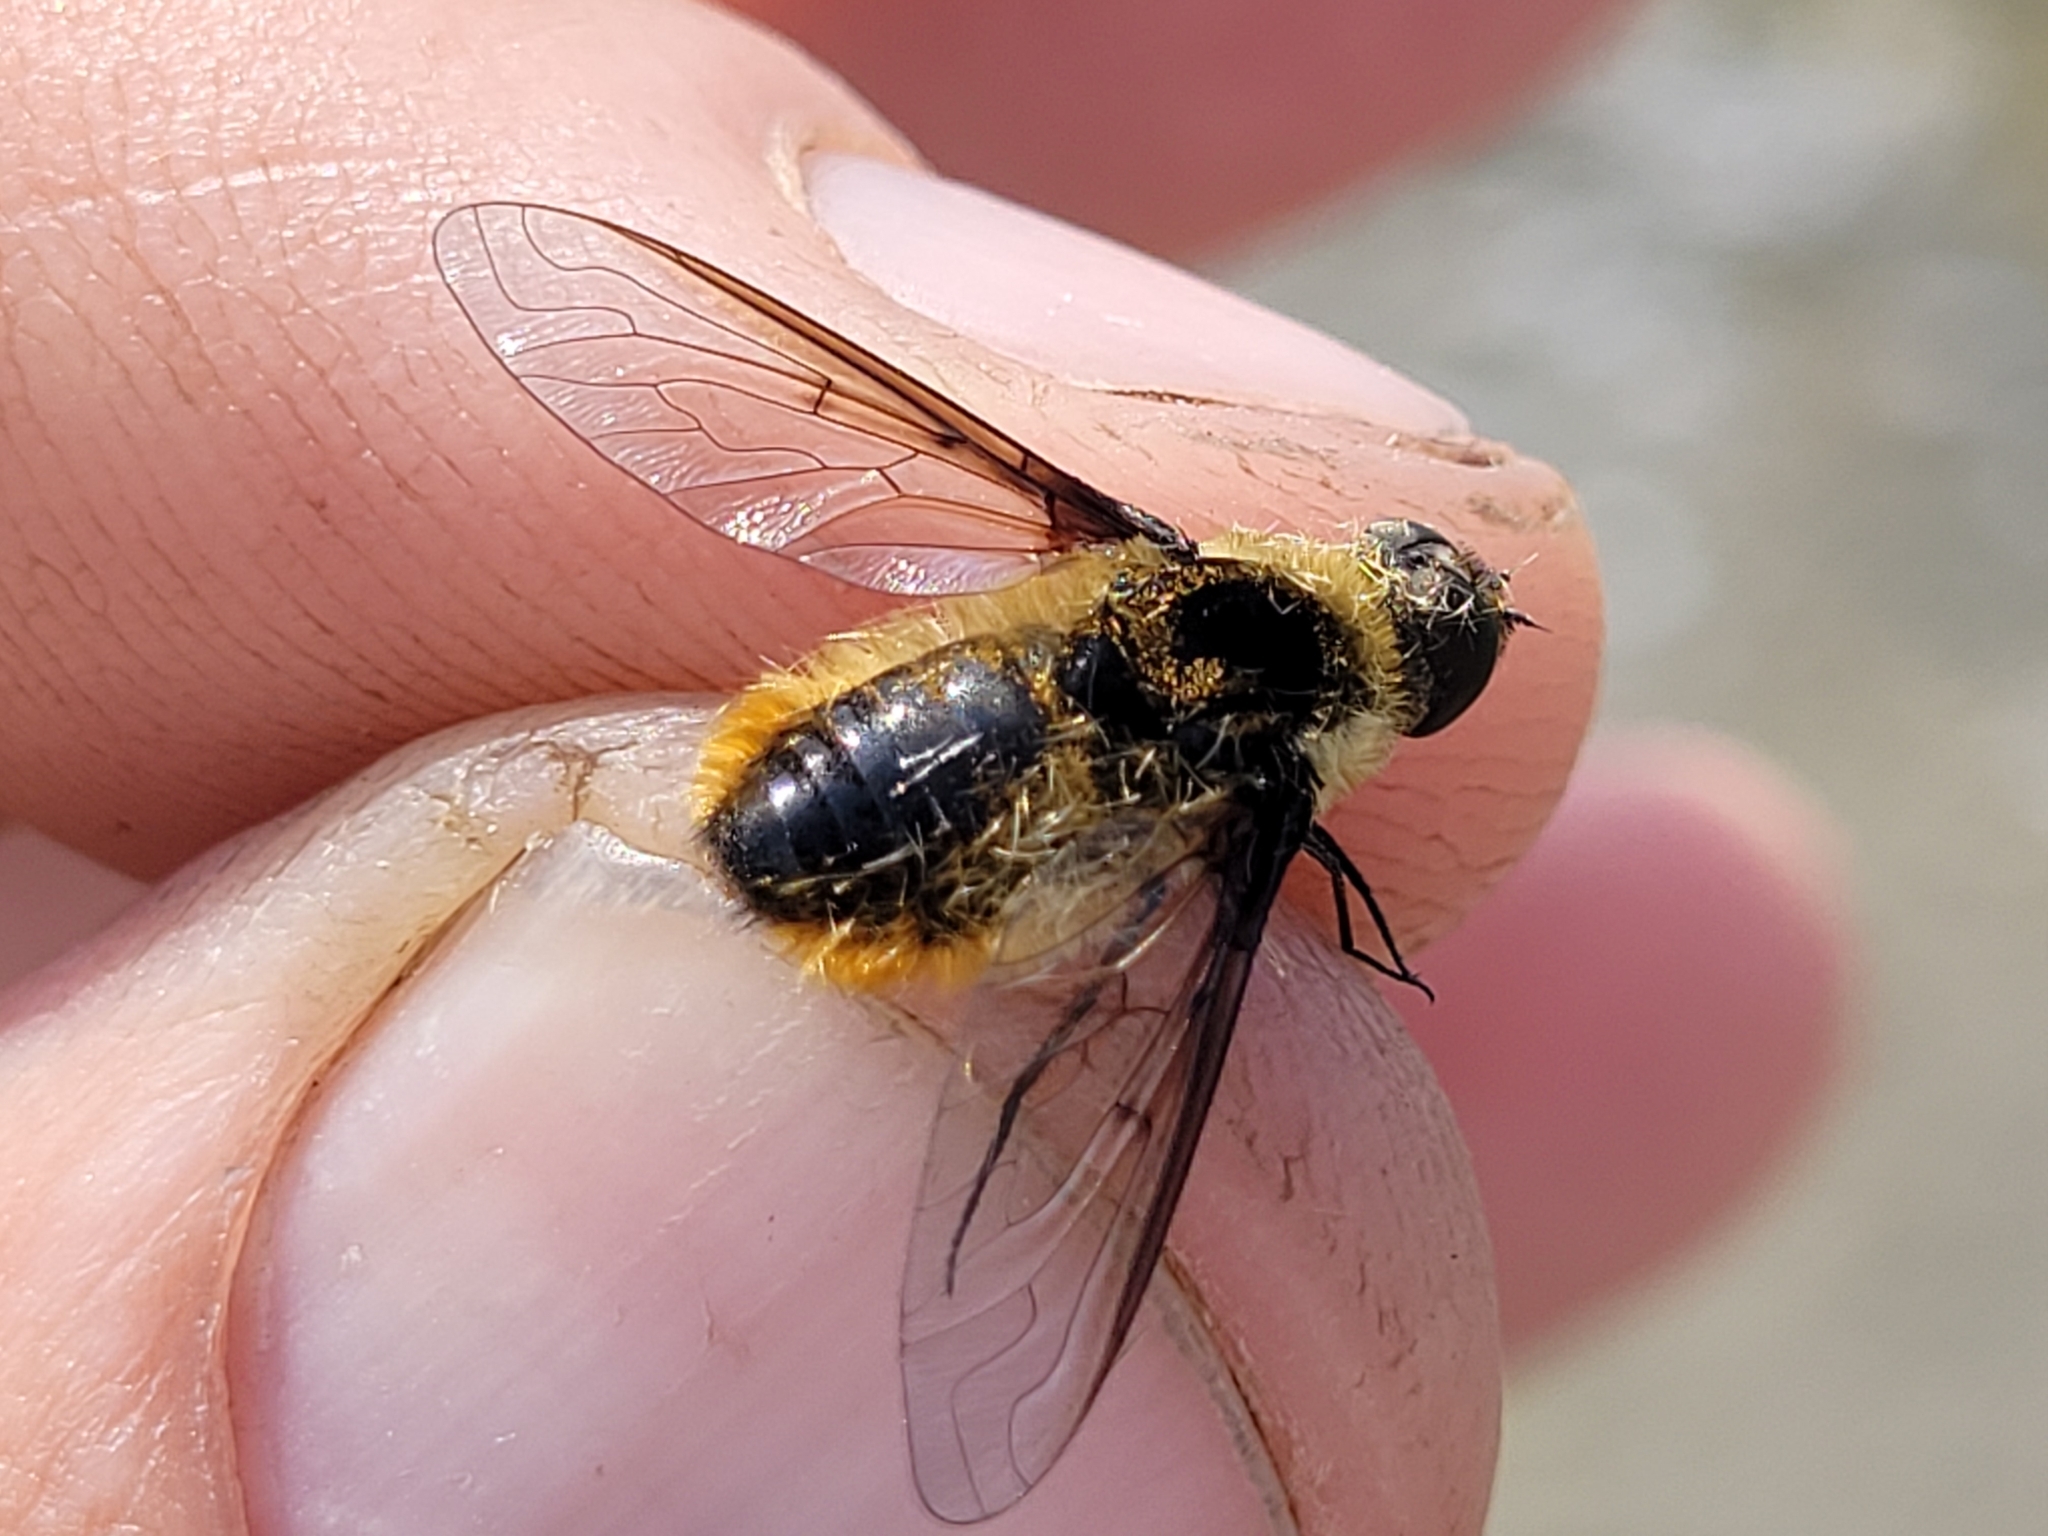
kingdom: Animalia
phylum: Arthropoda
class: Insecta
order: Diptera
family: Bombyliidae
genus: Villa
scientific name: Villa fulviana
